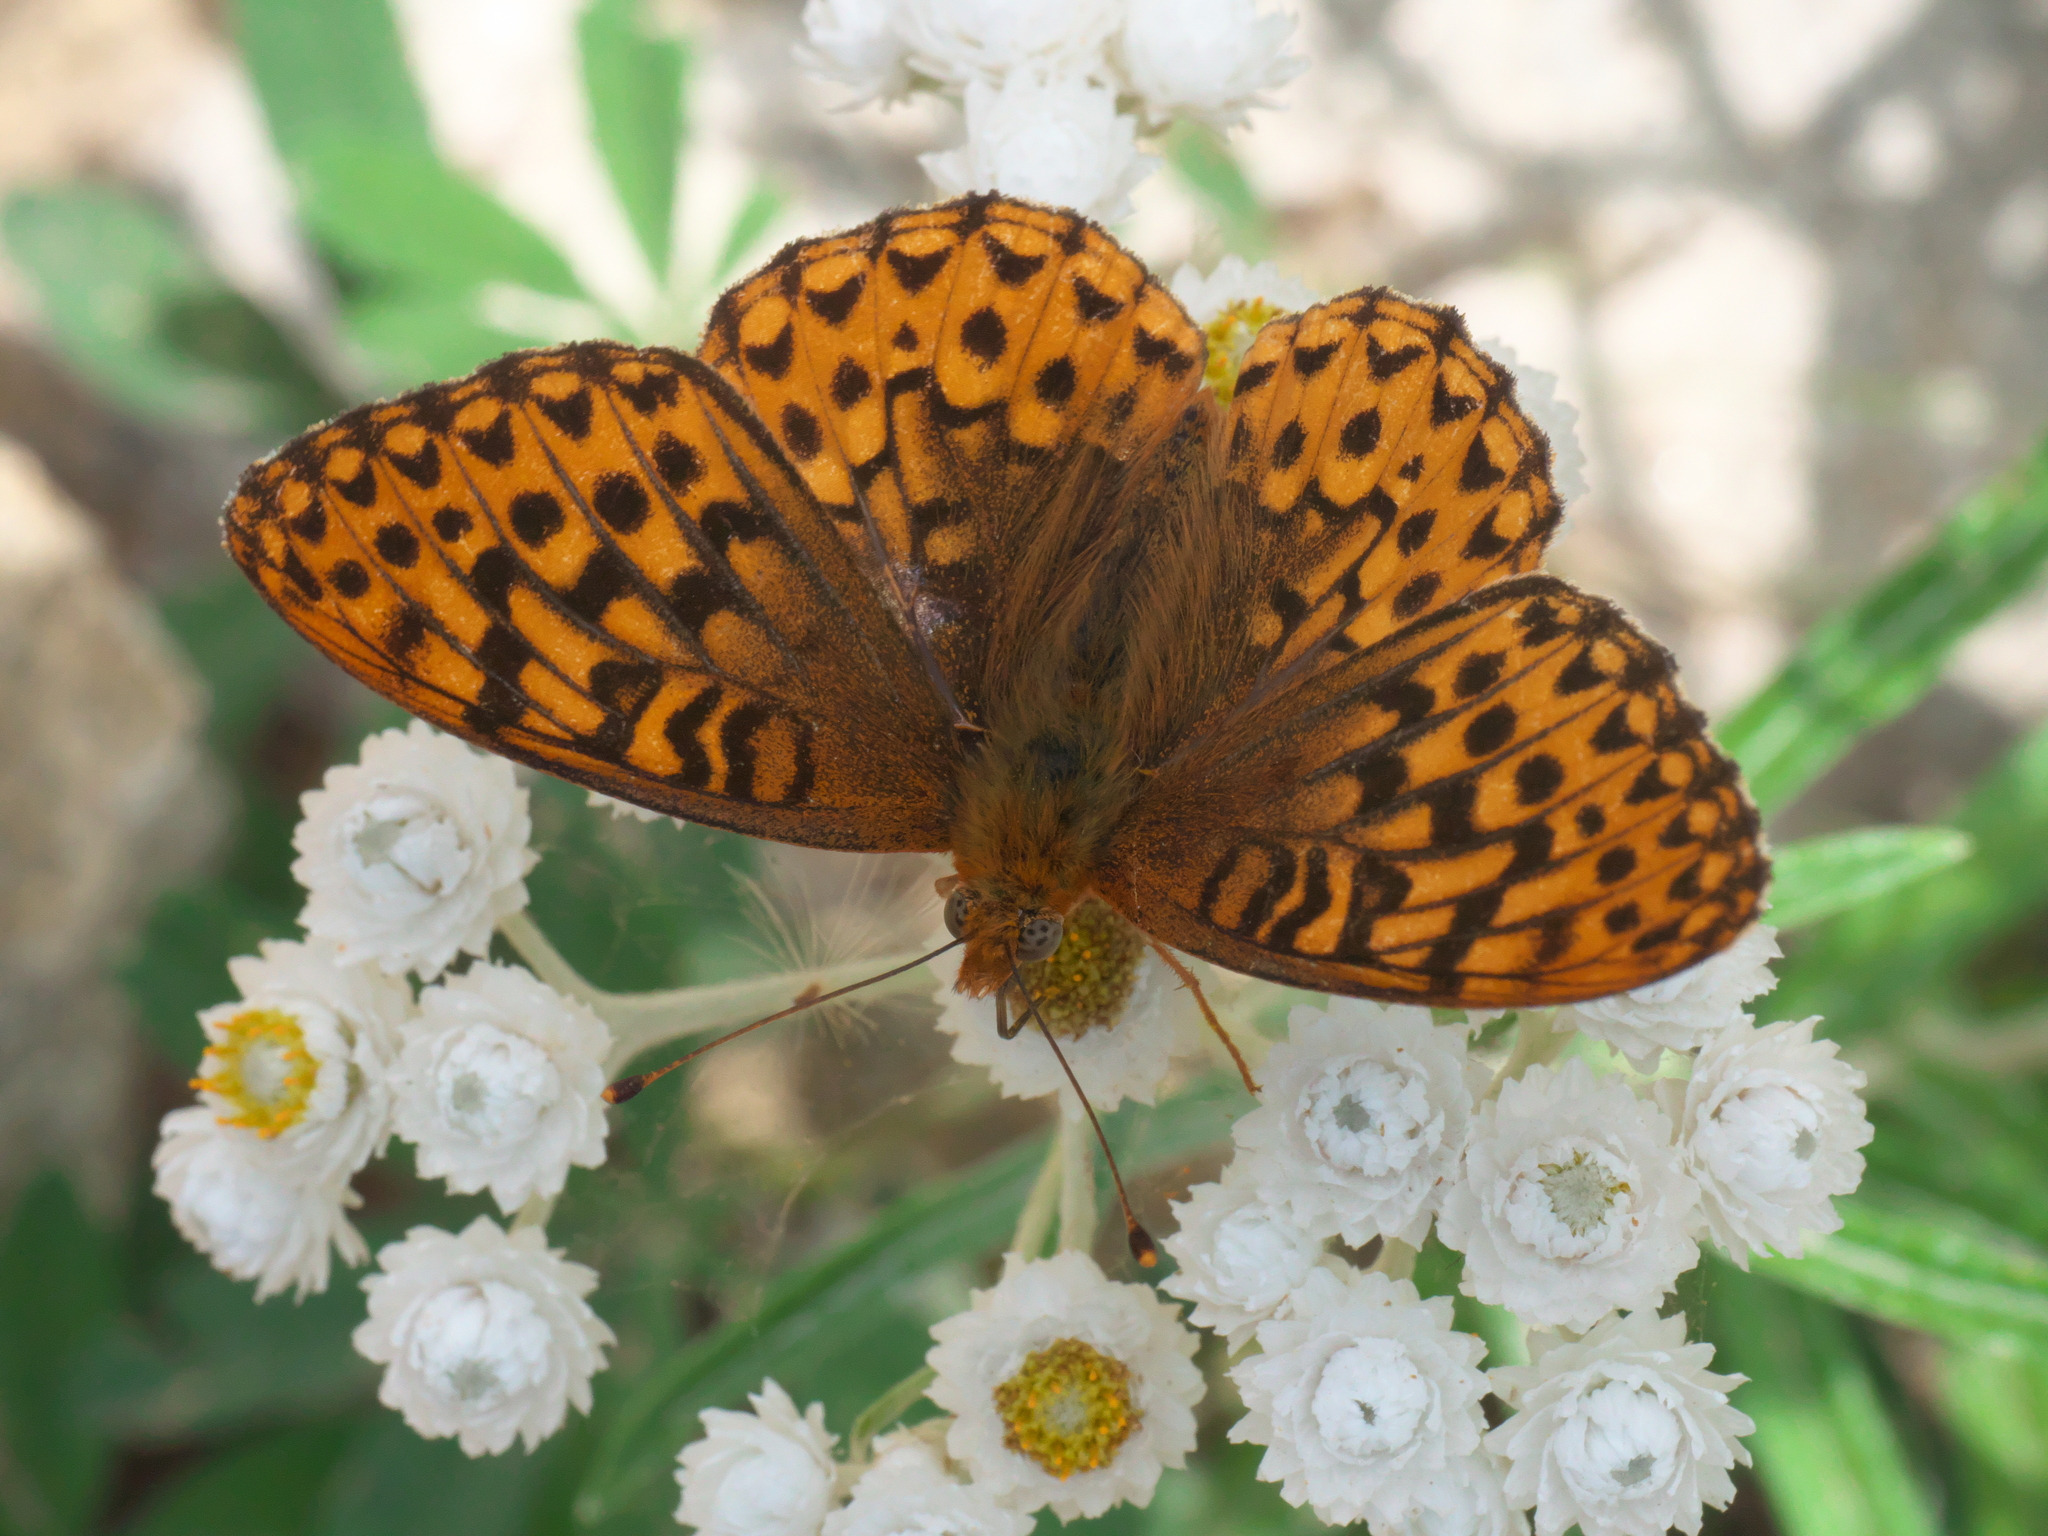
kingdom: Animalia
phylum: Arthropoda
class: Insecta
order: Lepidoptera
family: Nymphalidae
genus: Speyeria
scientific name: Speyeria hydaspe
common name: Hydaspe fritillary
